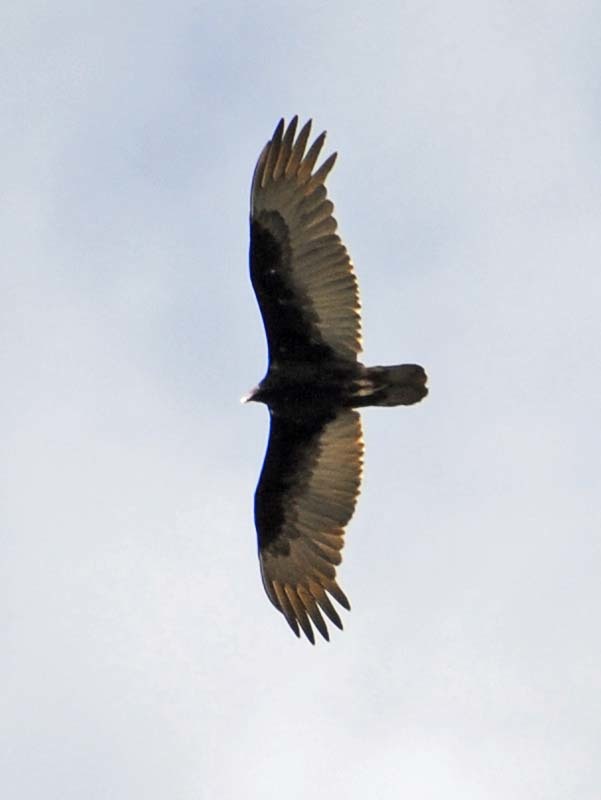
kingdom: Animalia
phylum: Chordata
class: Aves
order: Accipitriformes
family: Cathartidae
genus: Cathartes
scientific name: Cathartes aura
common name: Turkey vulture
